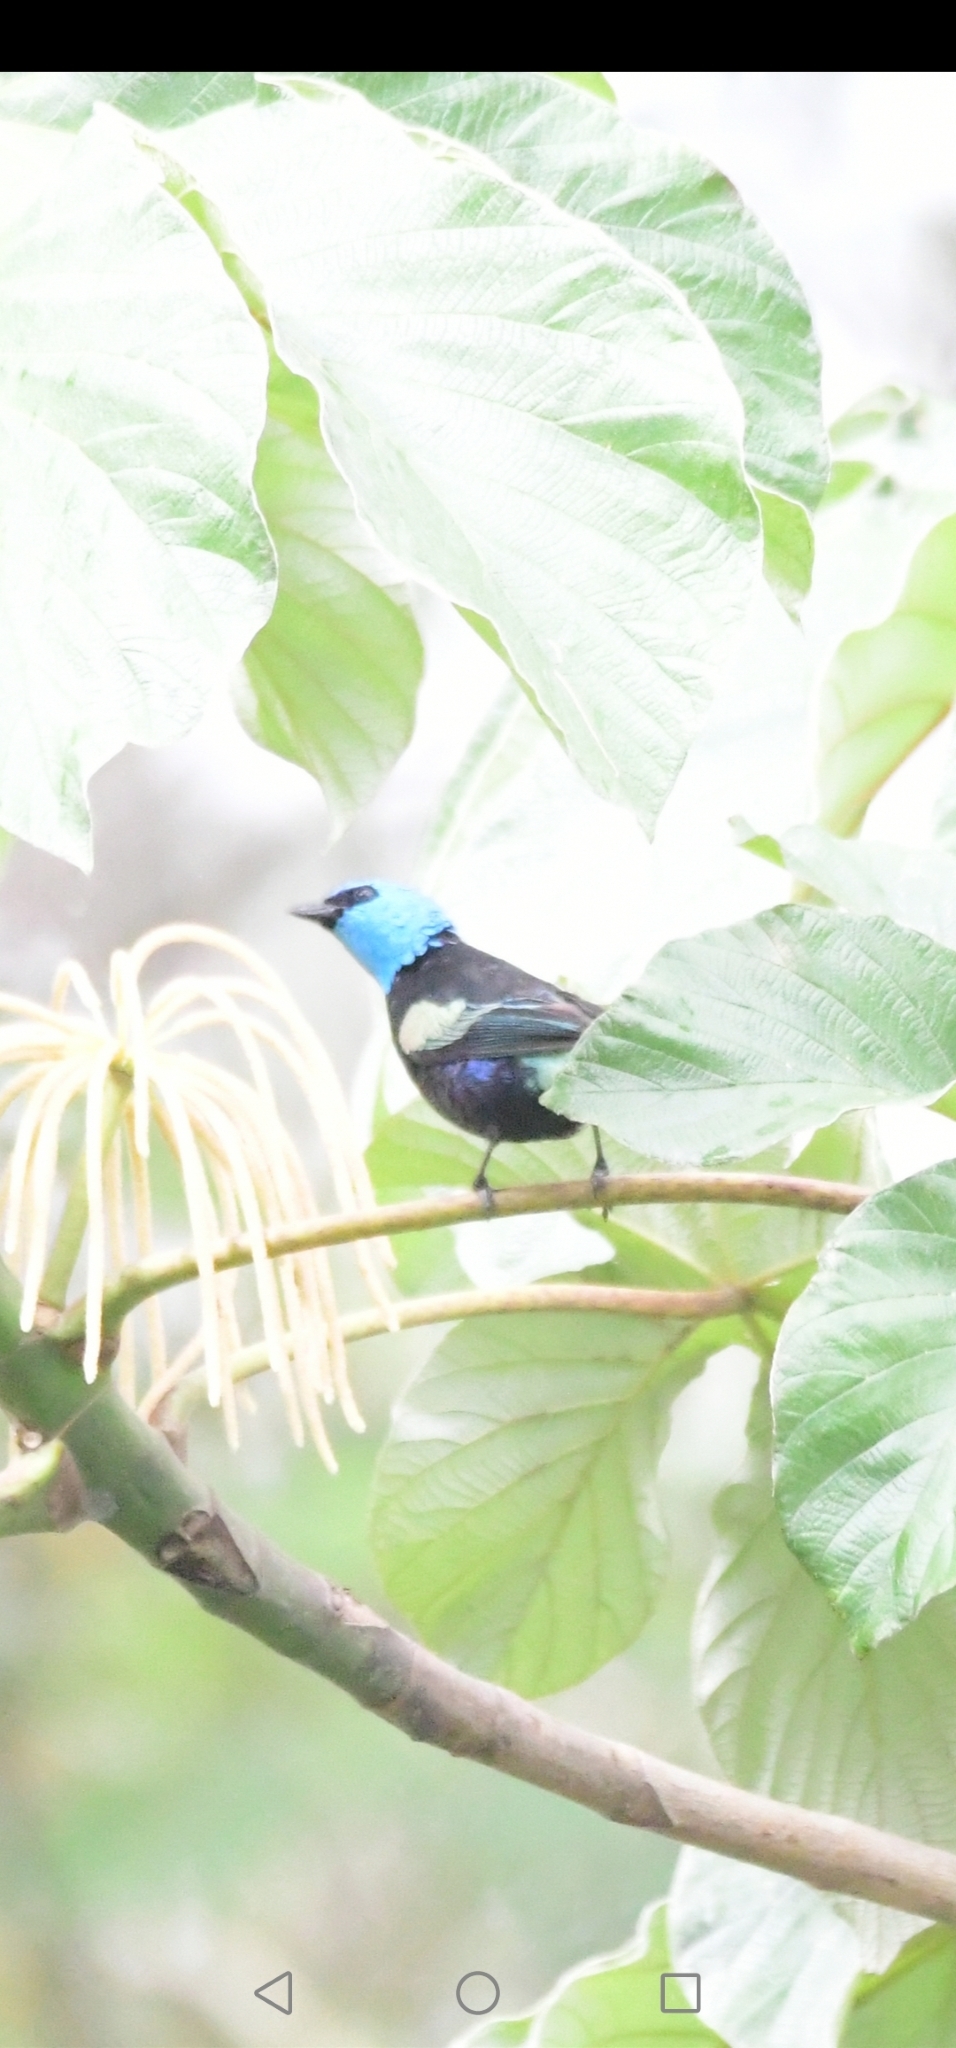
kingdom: Animalia
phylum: Chordata
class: Aves
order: Passeriformes
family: Thraupidae
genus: Stilpnia
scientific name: Stilpnia cyanicollis
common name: Blue-necked tanager
